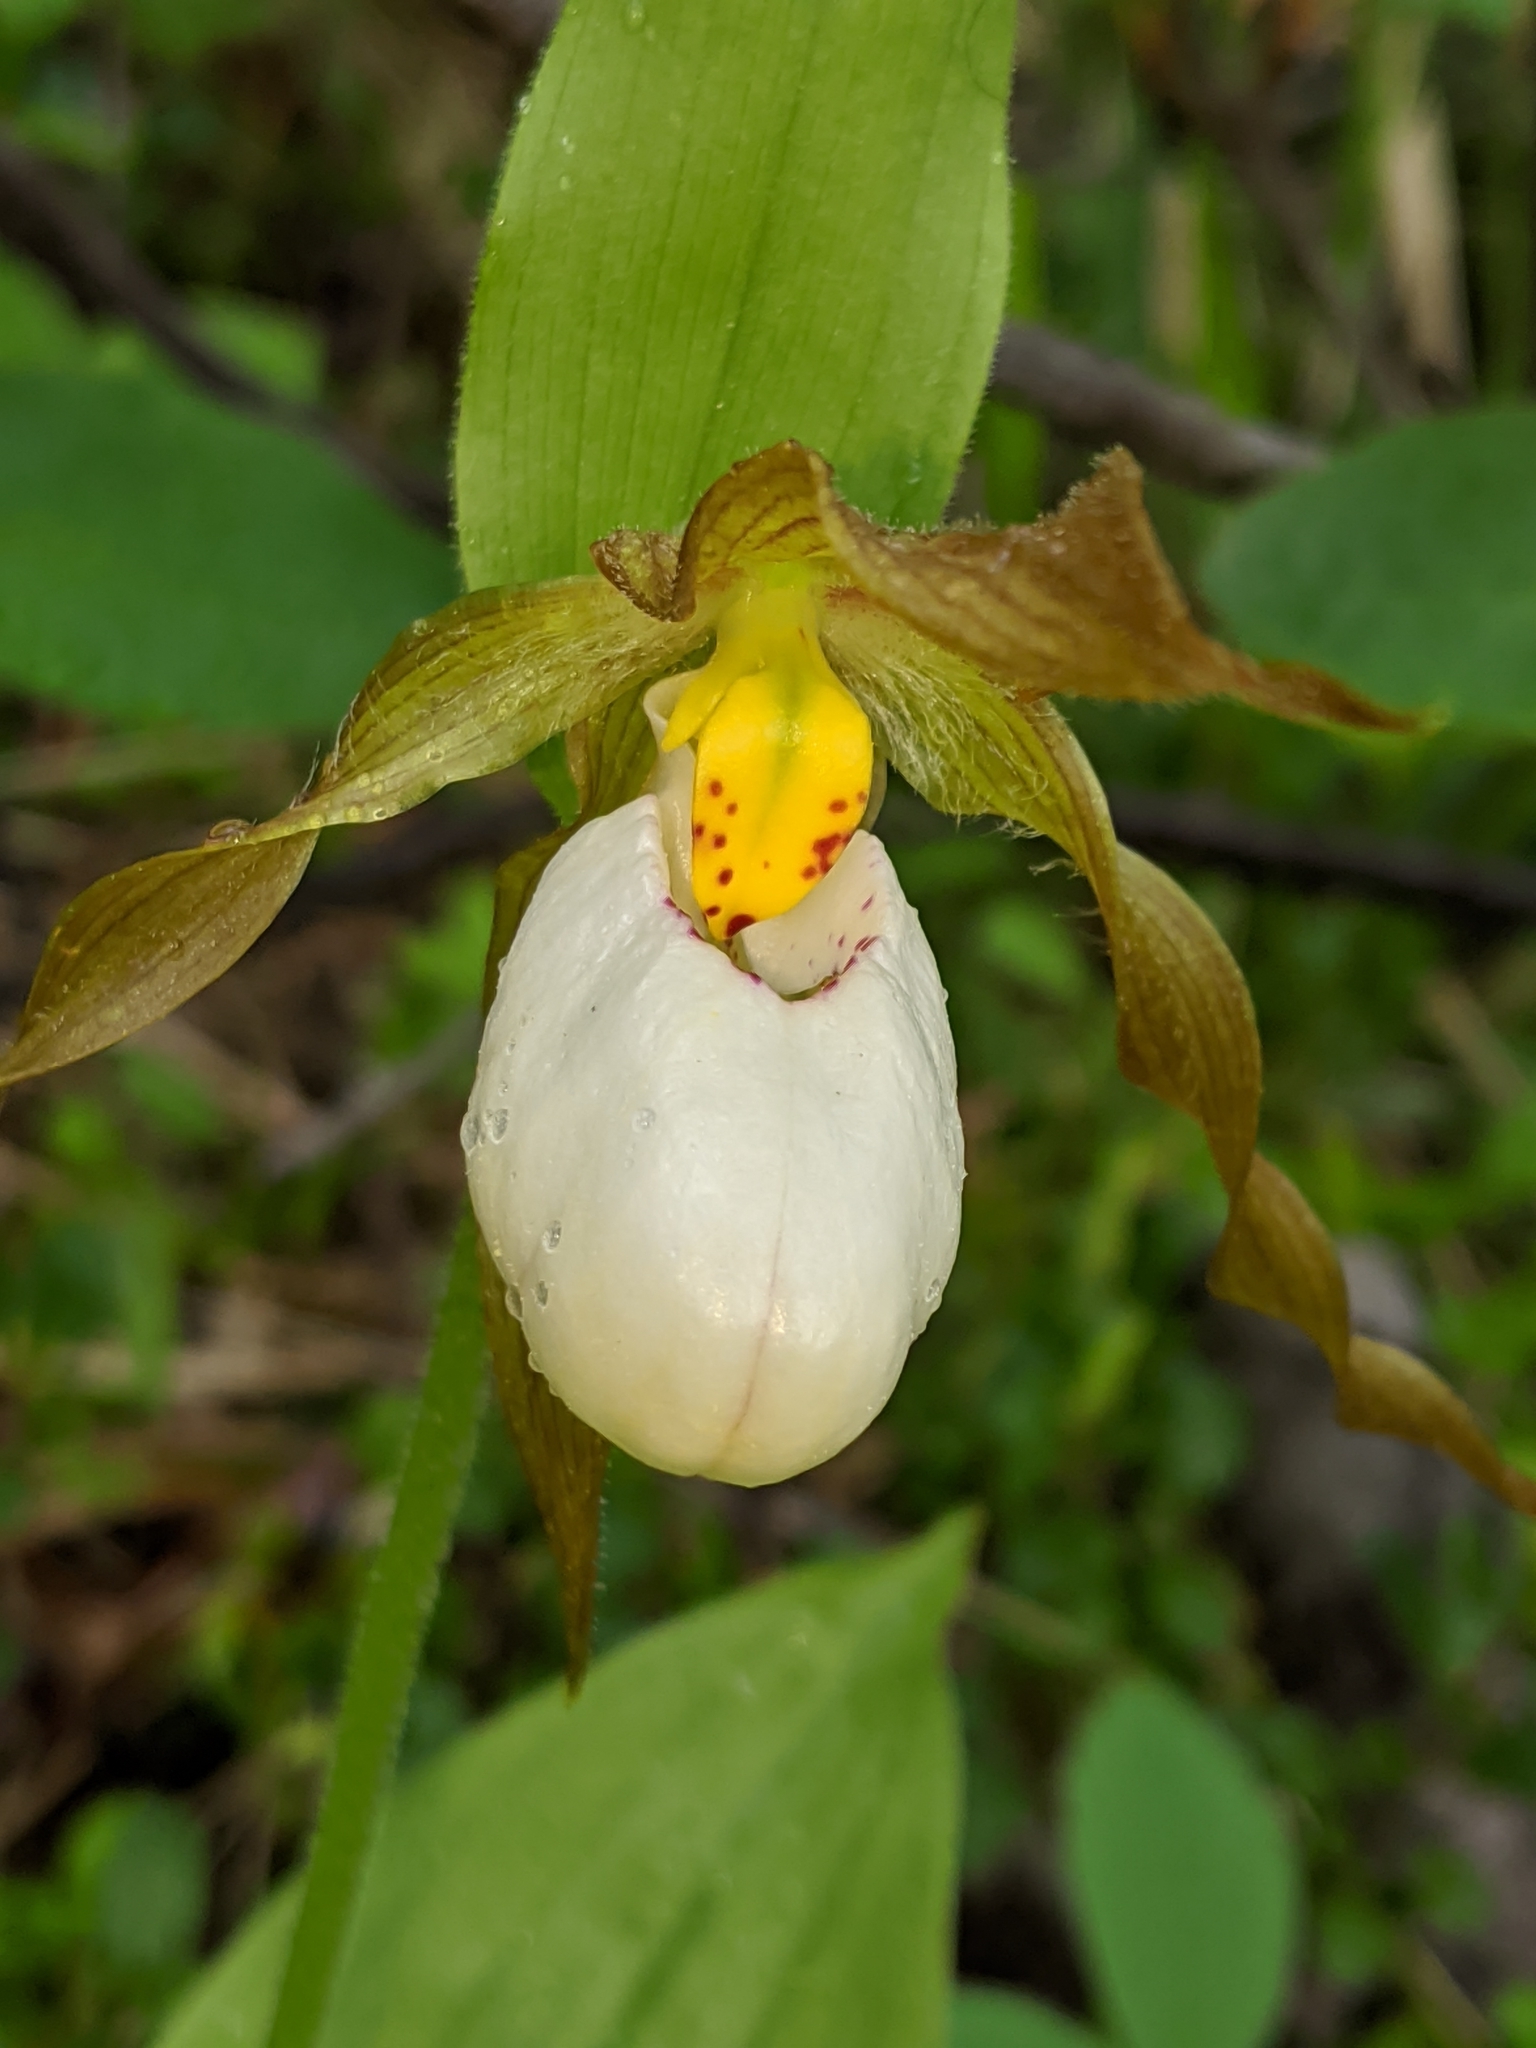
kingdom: Plantae
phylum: Tracheophyta
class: Liliopsida
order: Asparagales
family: Orchidaceae
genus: Cypripedium
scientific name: Cypripedium montanum
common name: Mountain lady's-slipper
